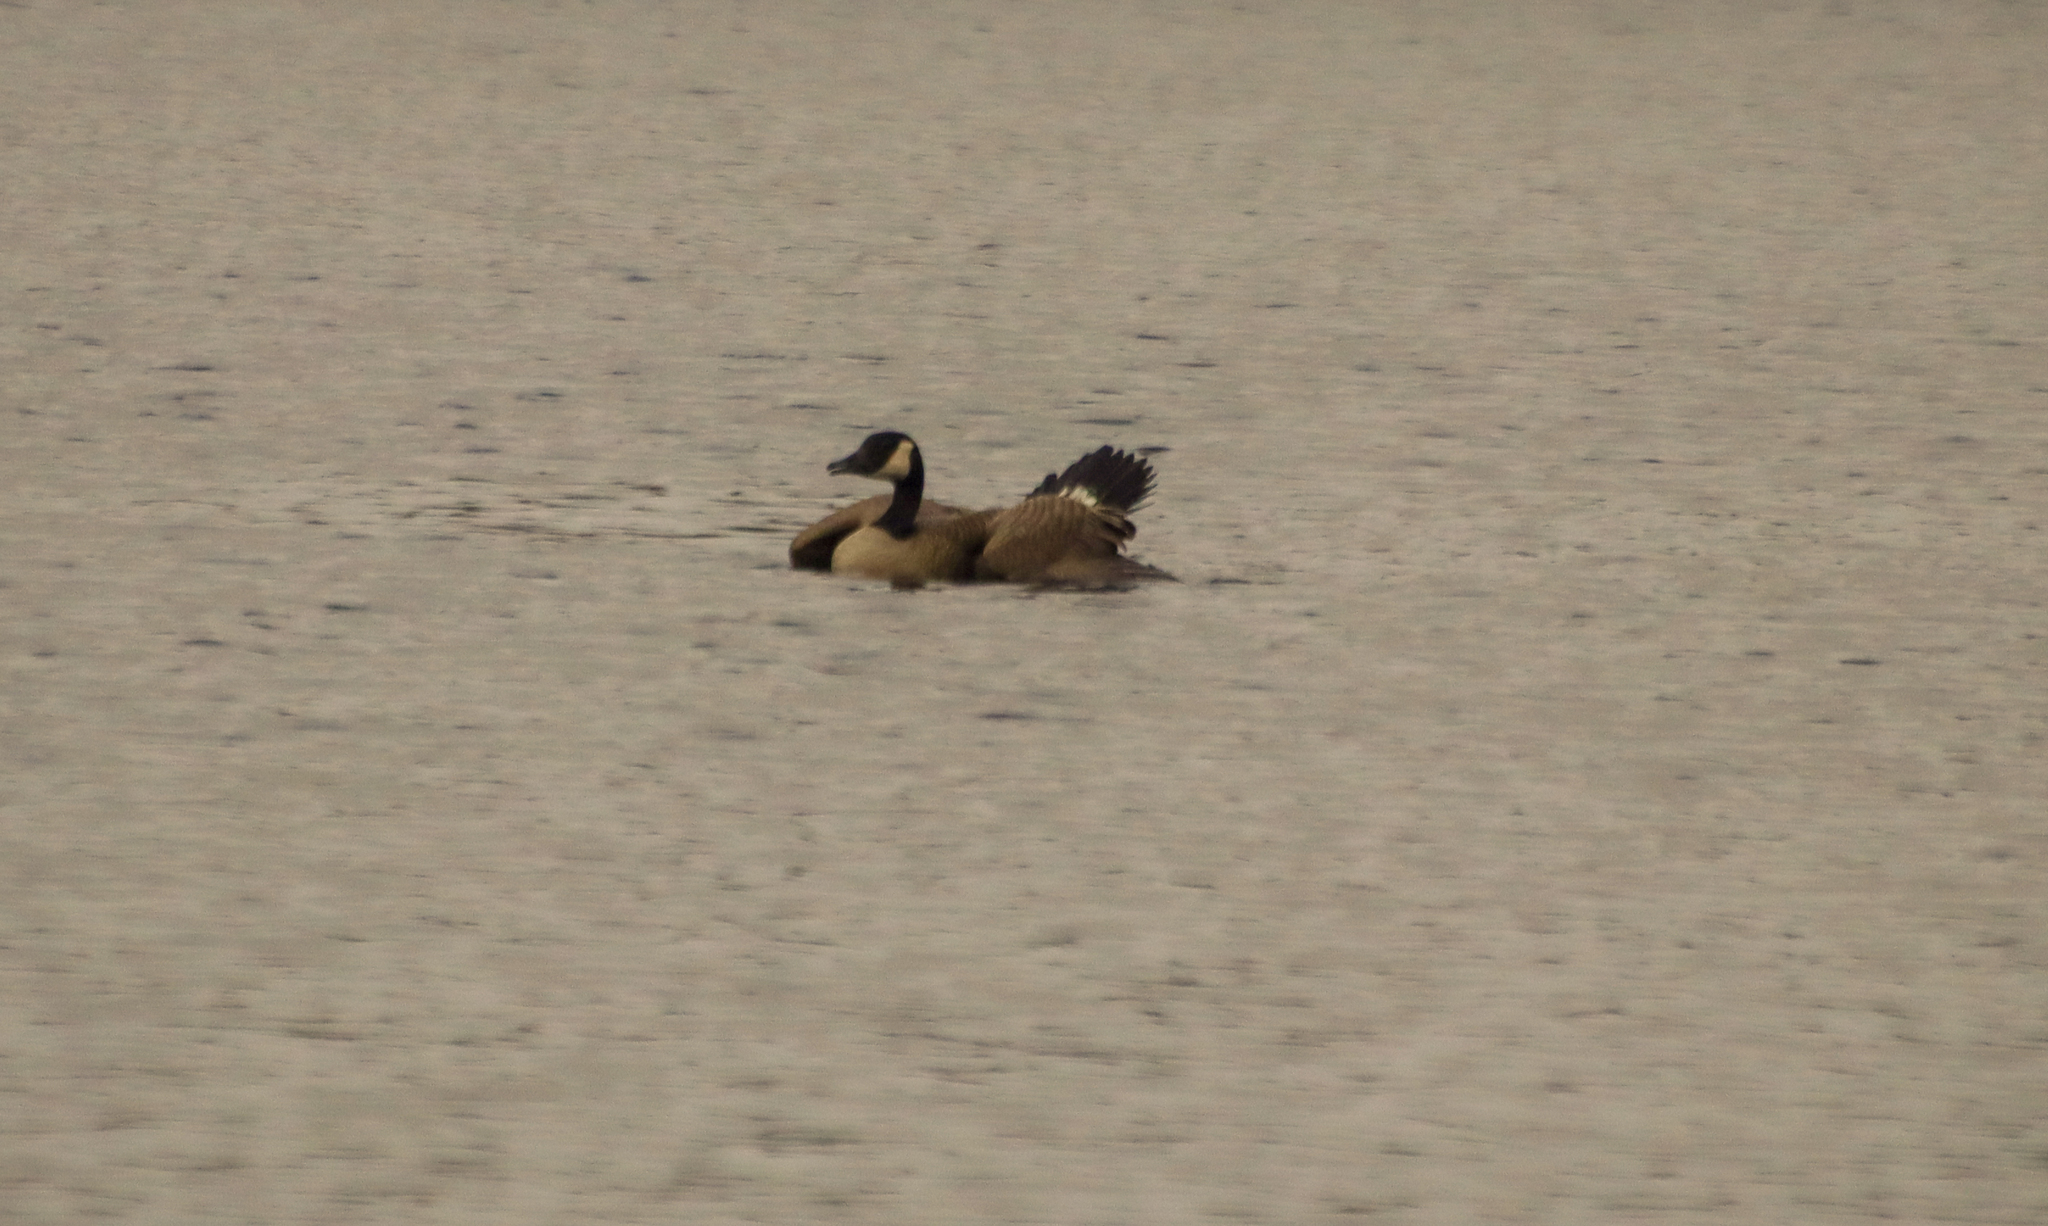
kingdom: Animalia
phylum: Chordata
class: Aves
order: Anseriformes
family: Anatidae
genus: Branta
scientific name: Branta canadensis
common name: Canada goose
